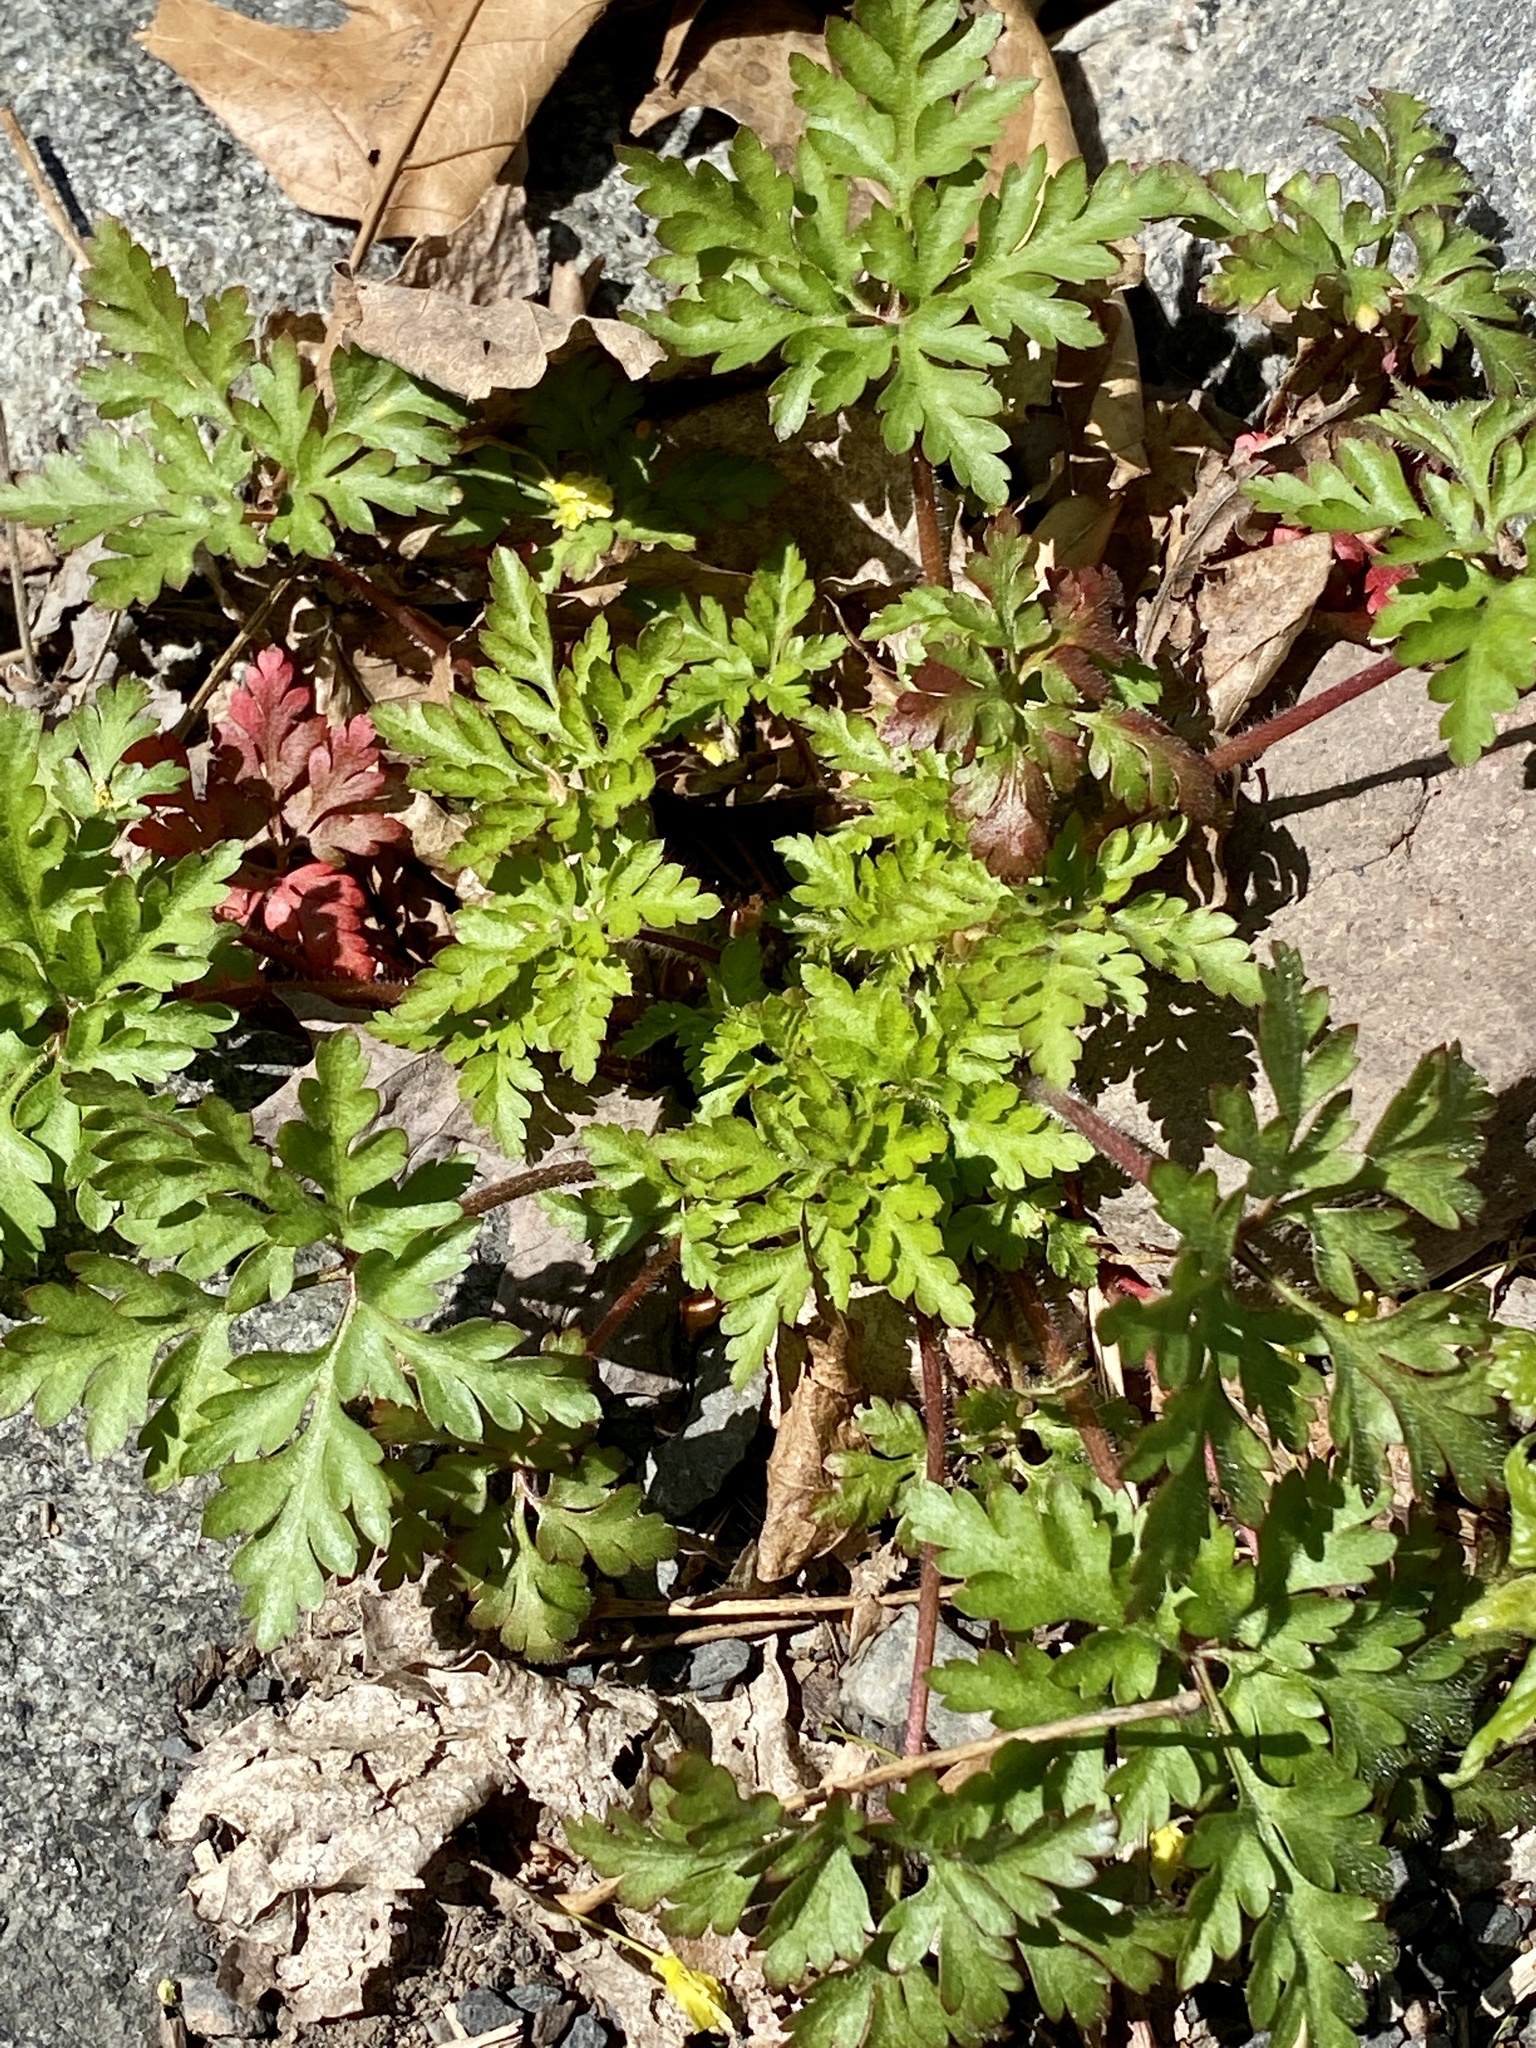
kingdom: Plantae
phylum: Tracheophyta
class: Magnoliopsida
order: Geraniales
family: Geraniaceae
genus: Geranium
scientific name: Geranium robertianum
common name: Herb-robert
